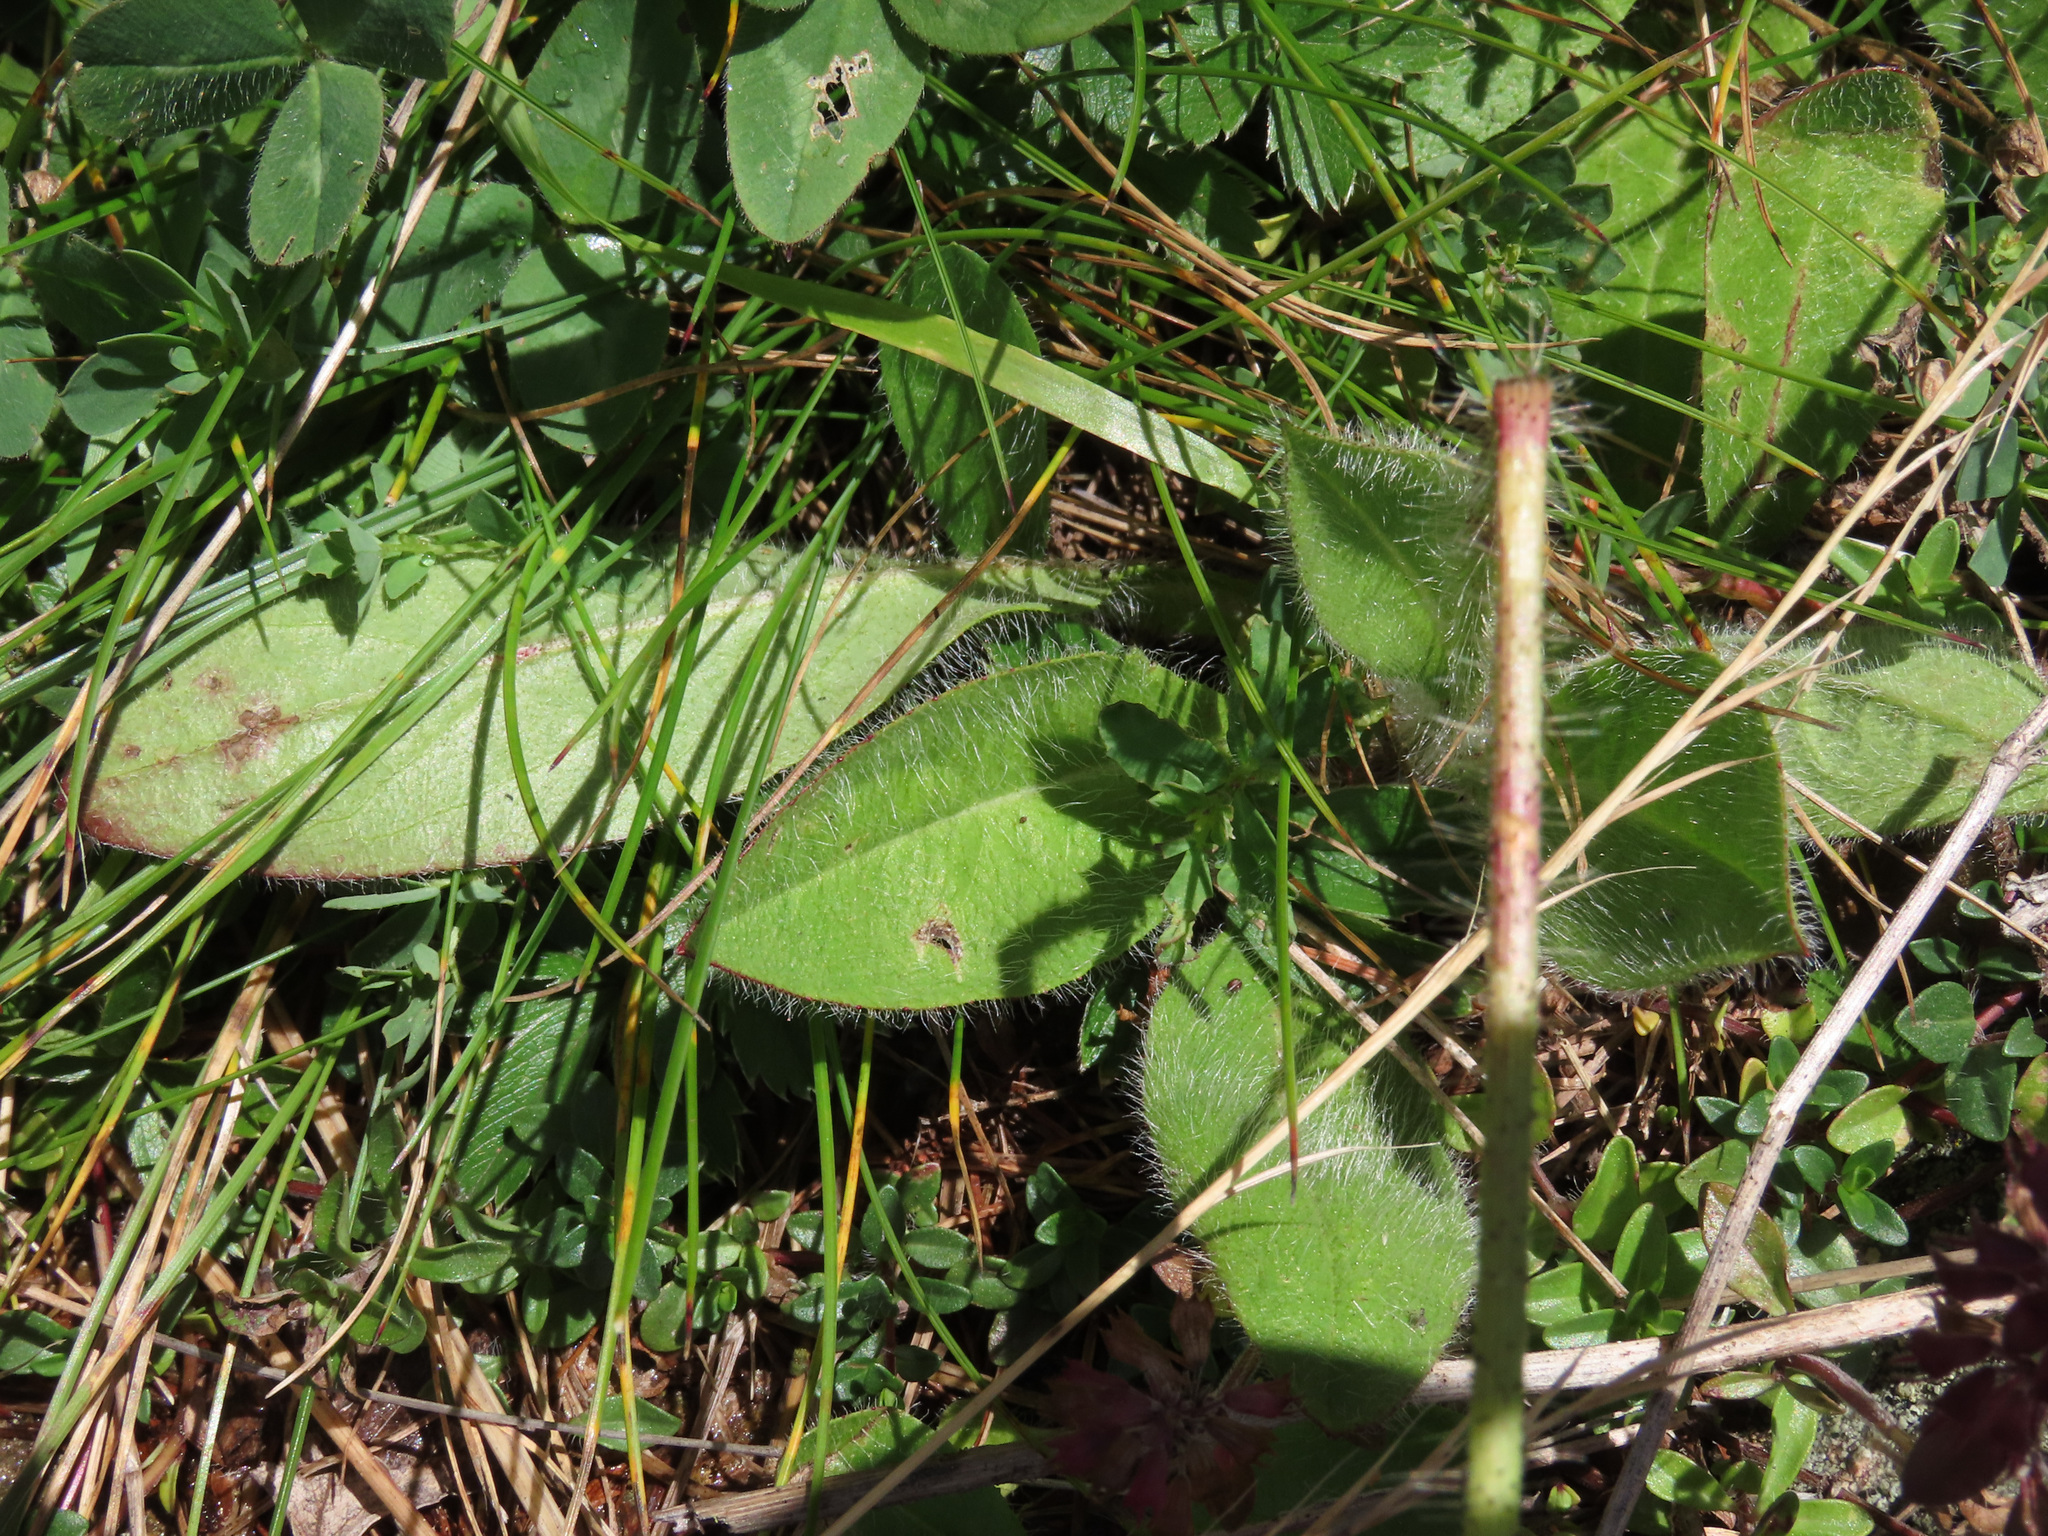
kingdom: Plantae
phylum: Tracheophyta
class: Magnoliopsida
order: Asterales
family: Asteraceae
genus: Pilosella
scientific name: Pilosella aurantiaca
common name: Fox-and-cubs
